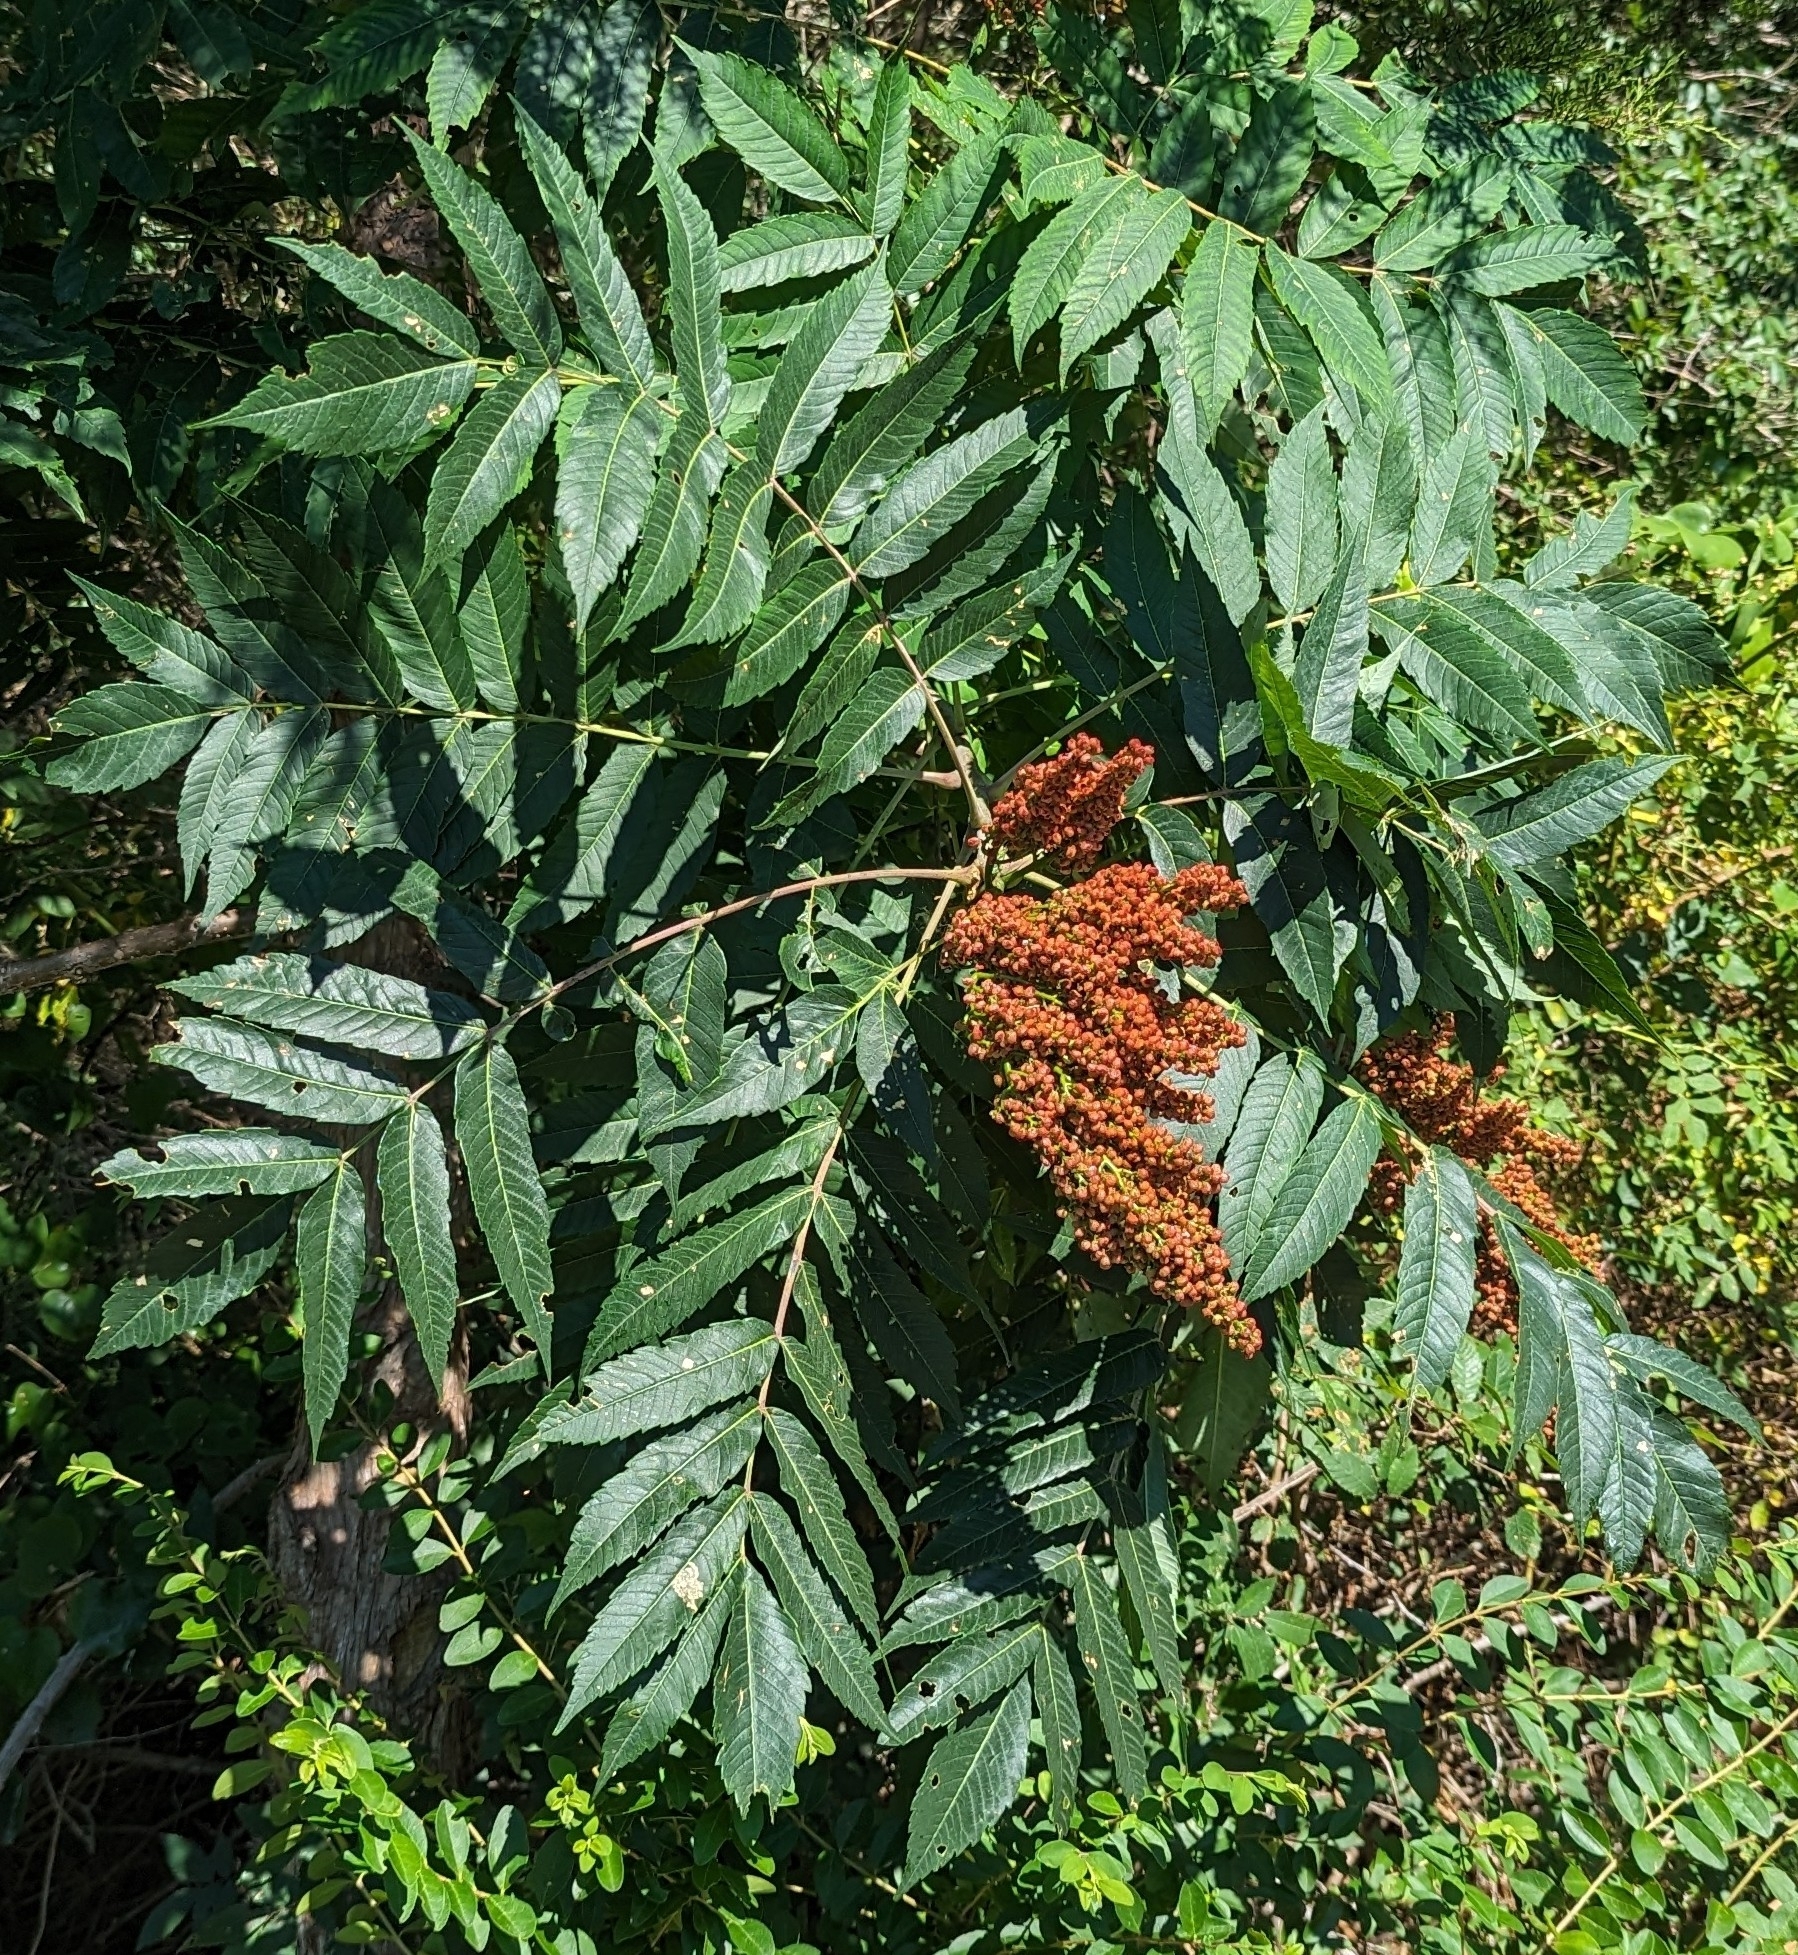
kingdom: Plantae
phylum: Tracheophyta
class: Magnoliopsida
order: Sapindales
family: Anacardiaceae
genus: Rhus
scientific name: Rhus glabra
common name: Scarlet sumac
